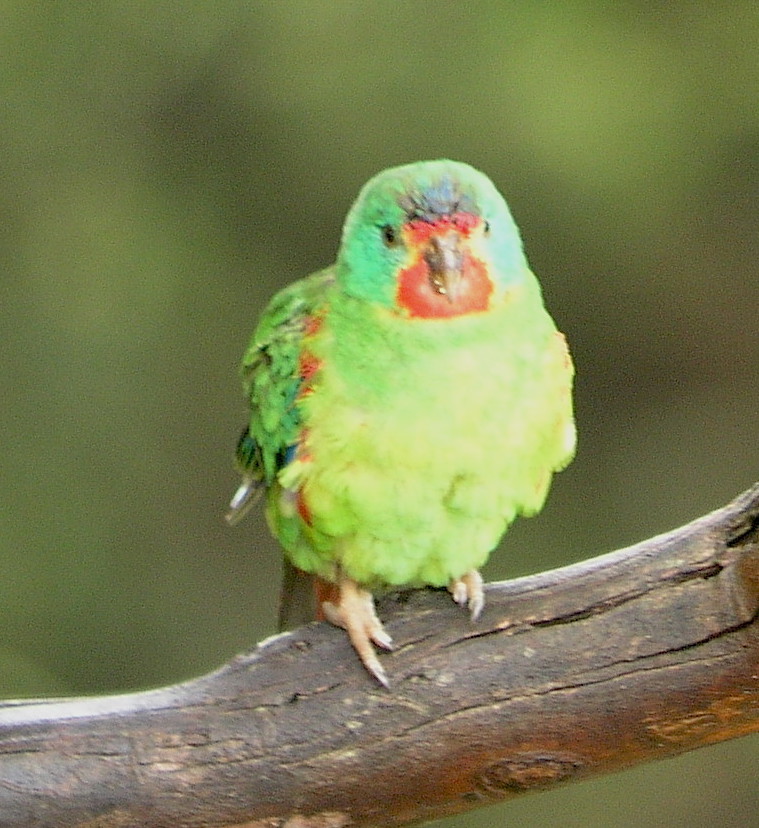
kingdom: Animalia
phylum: Chordata
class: Aves
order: Psittaciformes
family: Psittacidae
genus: Lathamus
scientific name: Lathamus discolor
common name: Swift parrot
